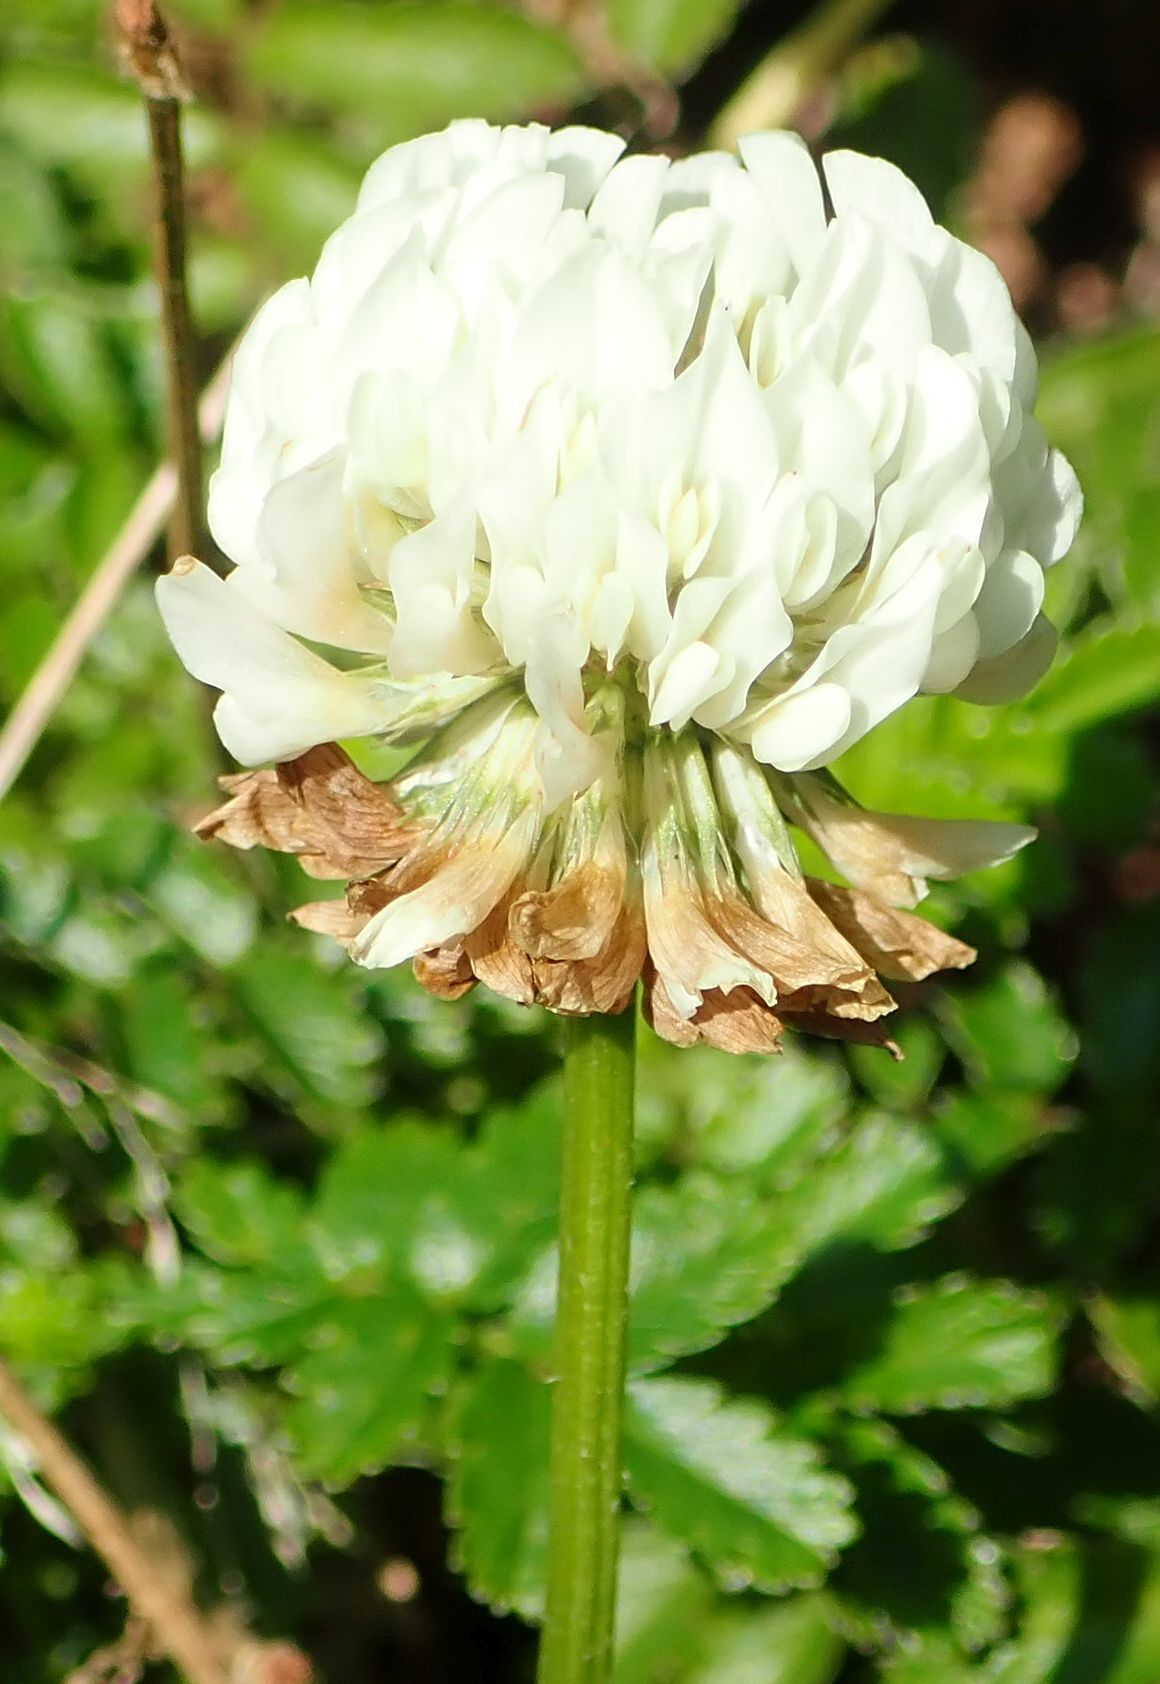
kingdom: Plantae
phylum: Tracheophyta
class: Magnoliopsida
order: Fabales
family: Fabaceae
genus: Trifolium
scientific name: Trifolium repens
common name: White clover
